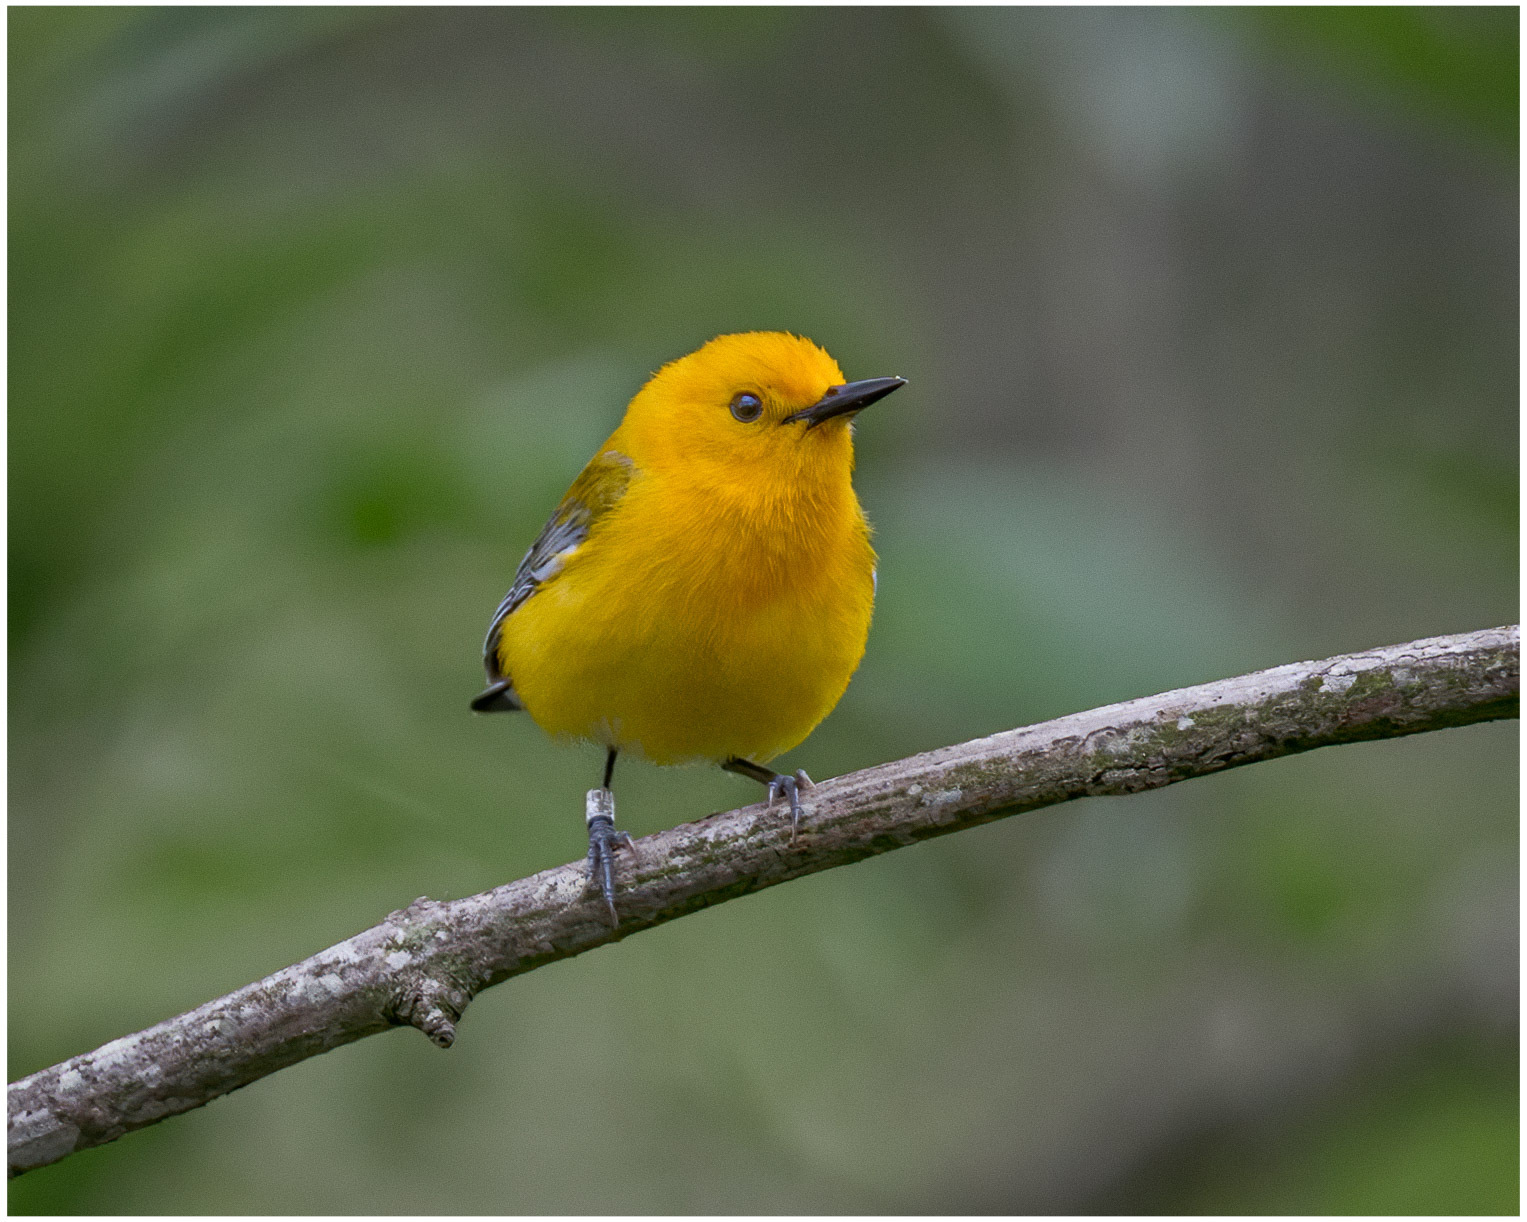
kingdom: Animalia
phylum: Chordata
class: Aves
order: Passeriformes
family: Parulidae
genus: Protonotaria
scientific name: Protonotaria citrea
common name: Prothonotary warbler
